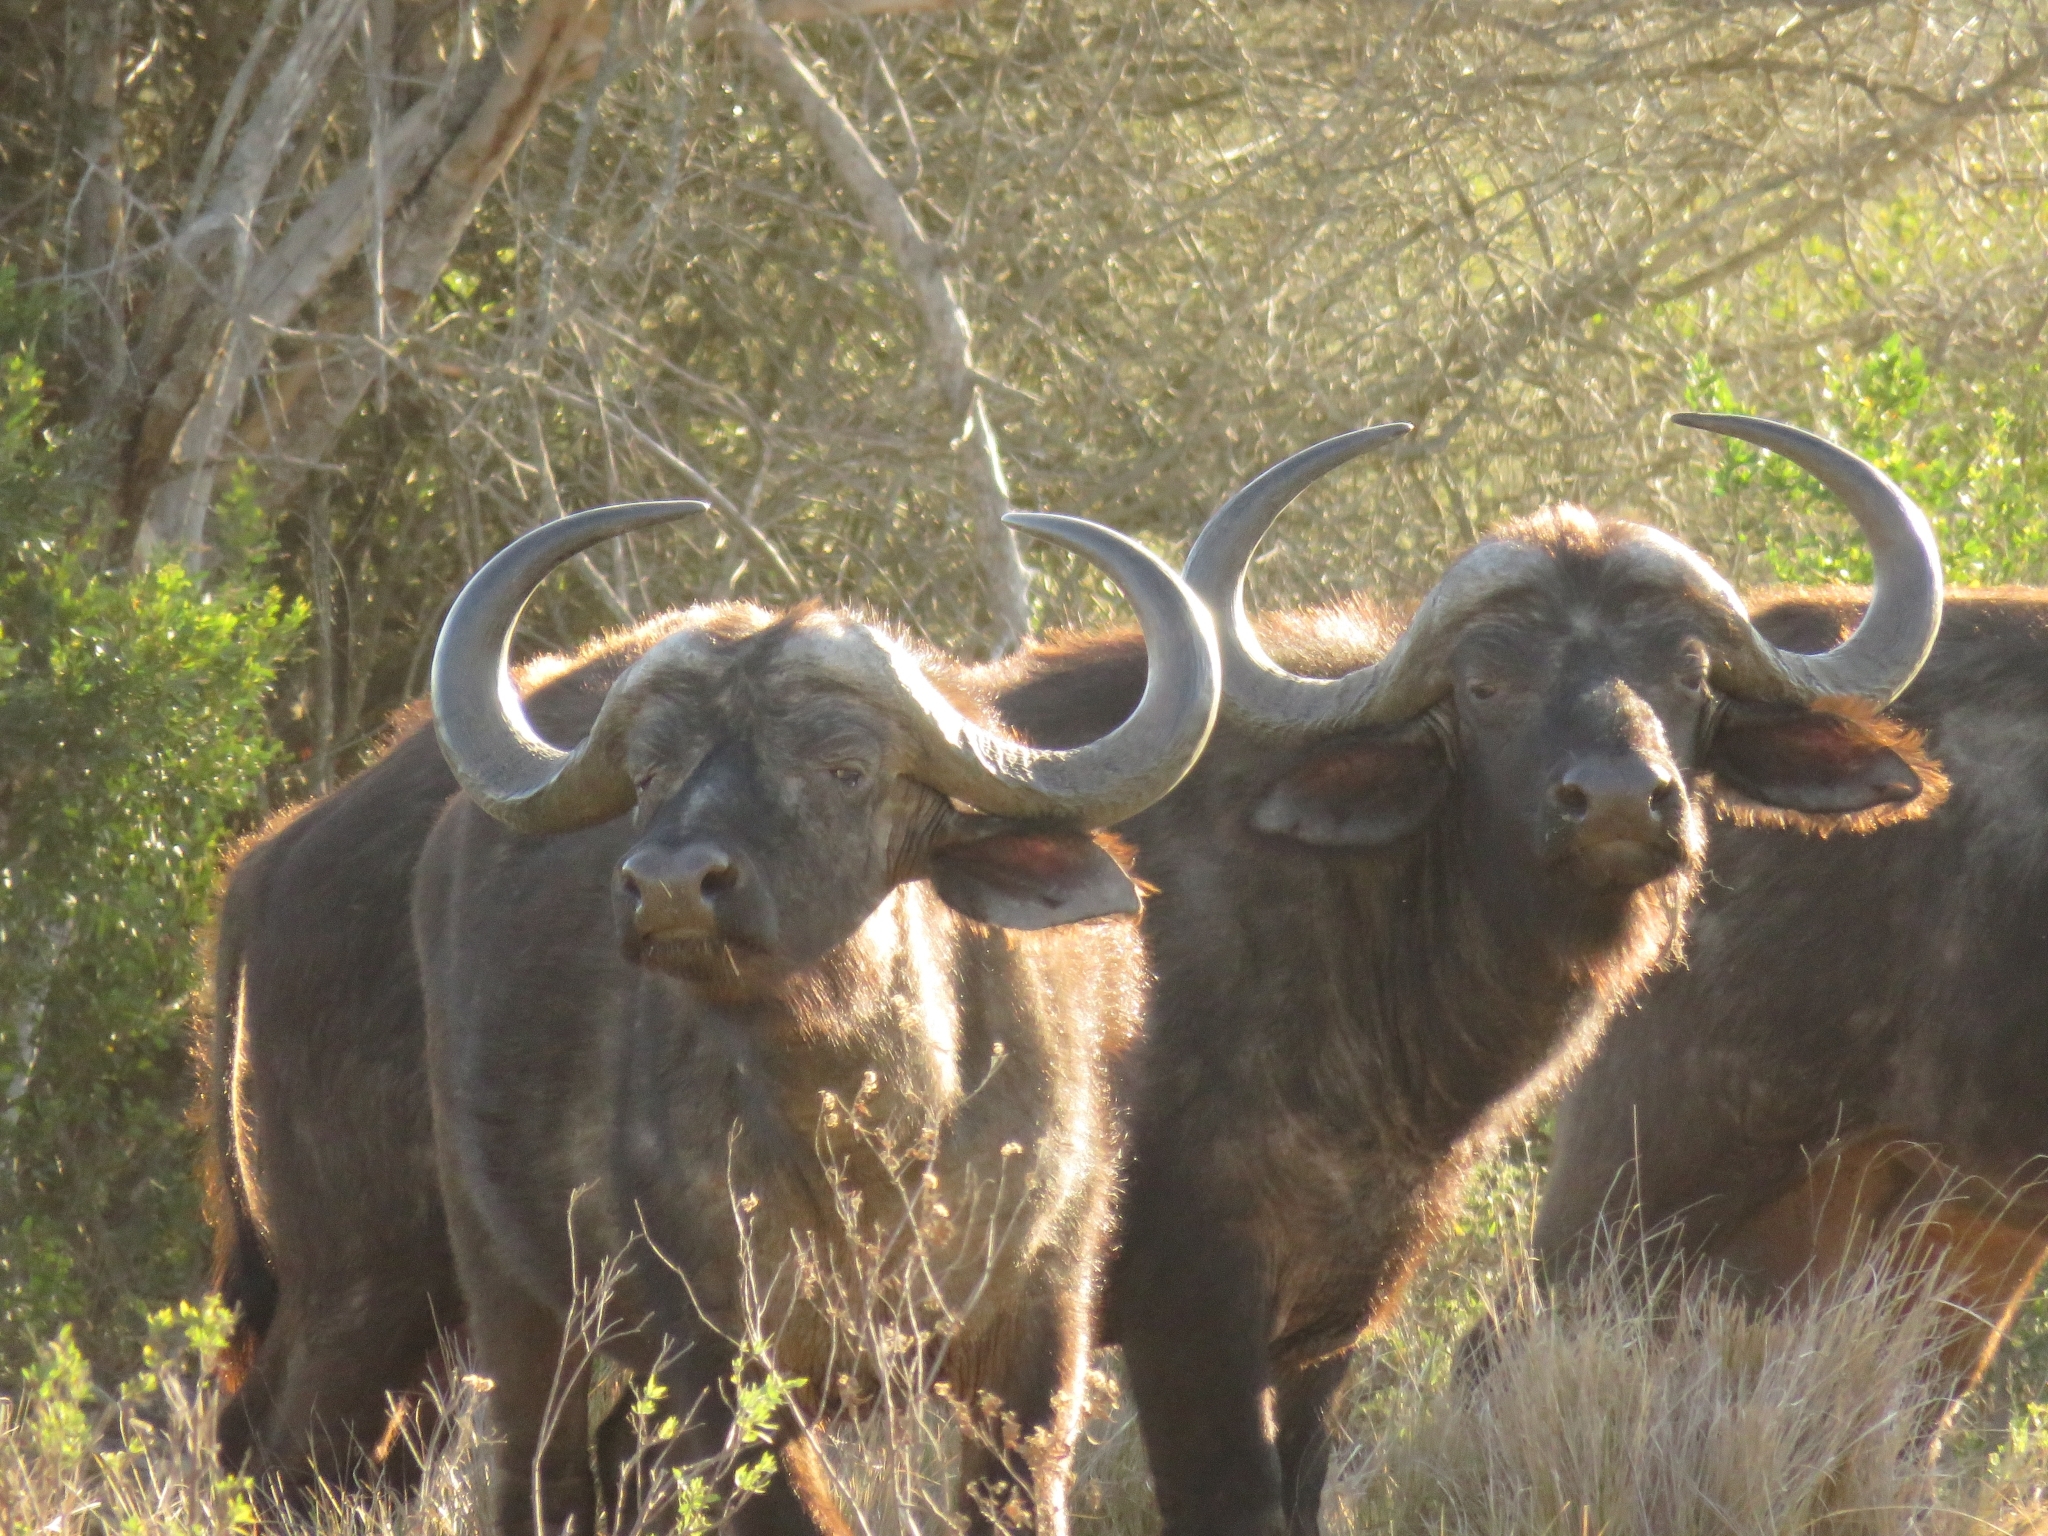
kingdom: Animalia
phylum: Chordata
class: Mammalia
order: Artiodactyla
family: Bovidae
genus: Syncerus
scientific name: Syncerus caffer
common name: African buffalo
